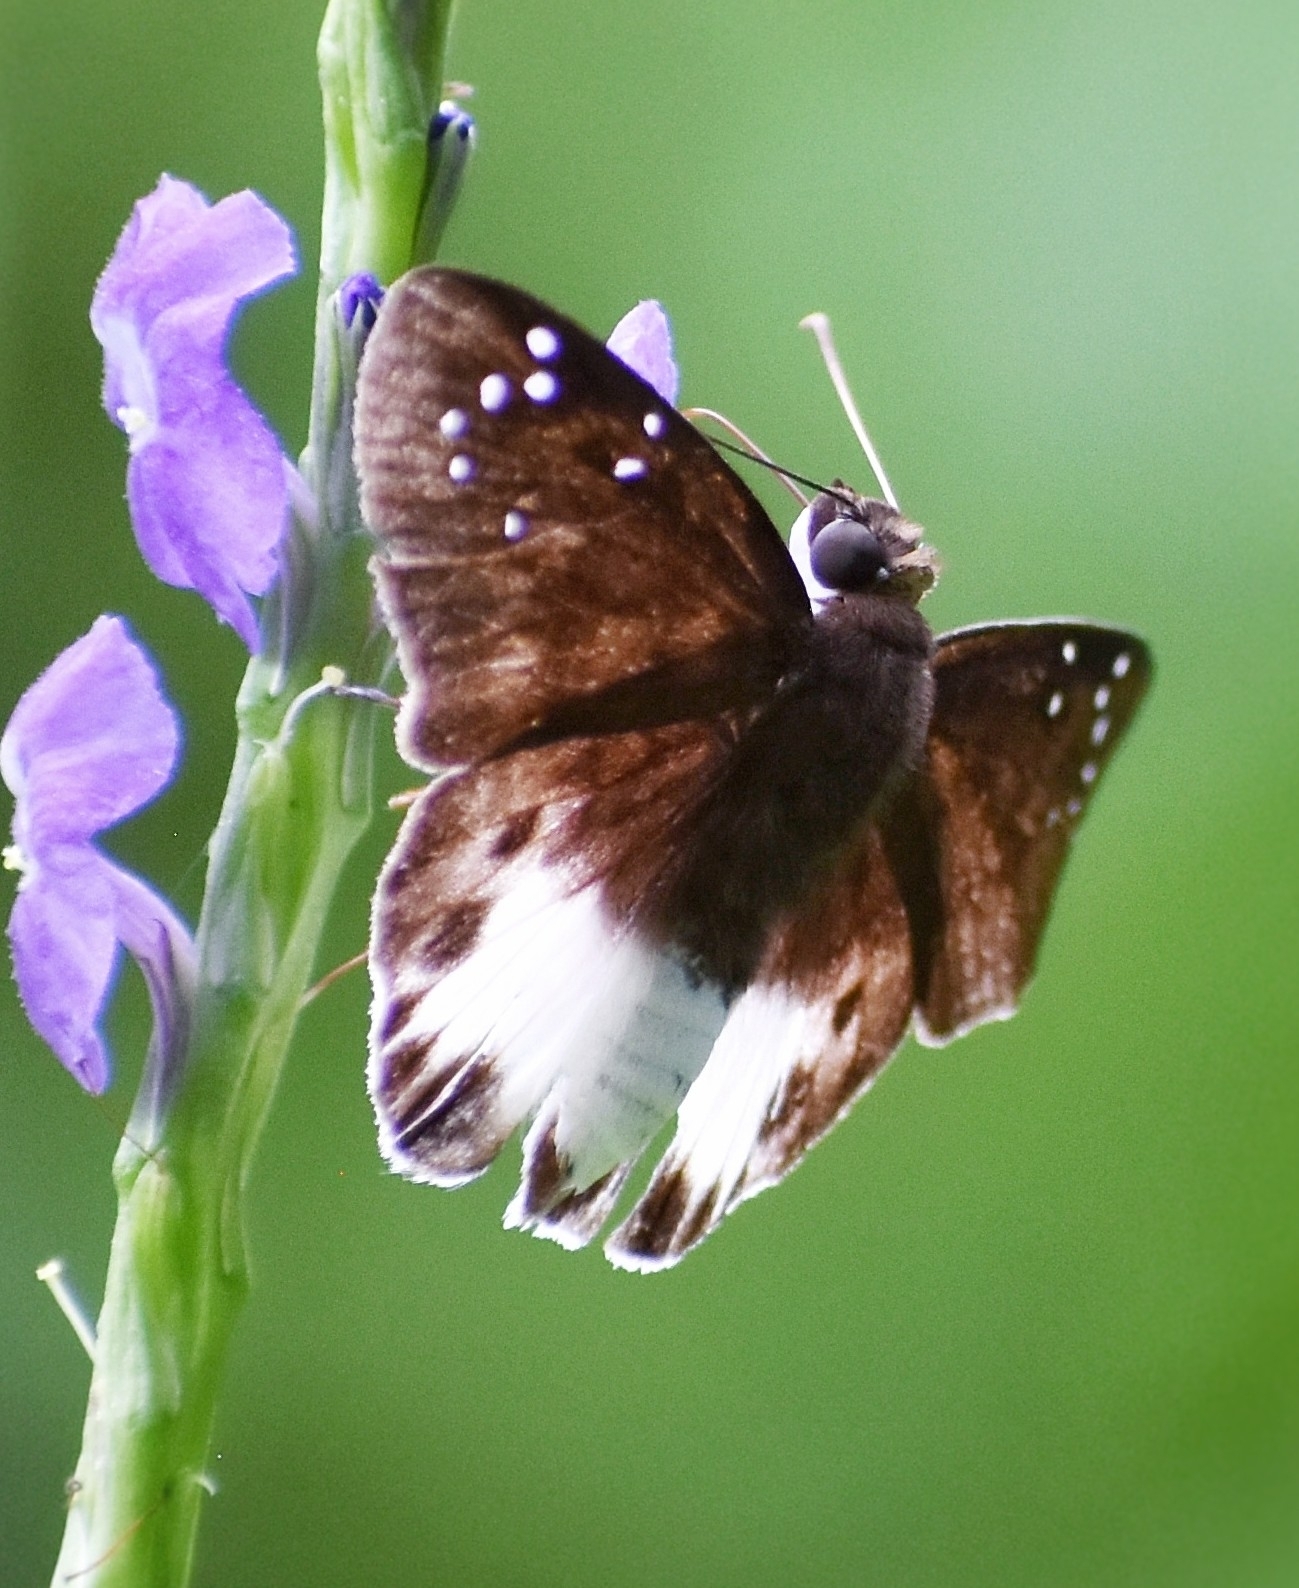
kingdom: Animalia
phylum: Arthropoda
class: Insecta
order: Lepidoptera
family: Hesperiidae
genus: Tagiades
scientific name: Tagiades litigiosa
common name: Water snow flat
